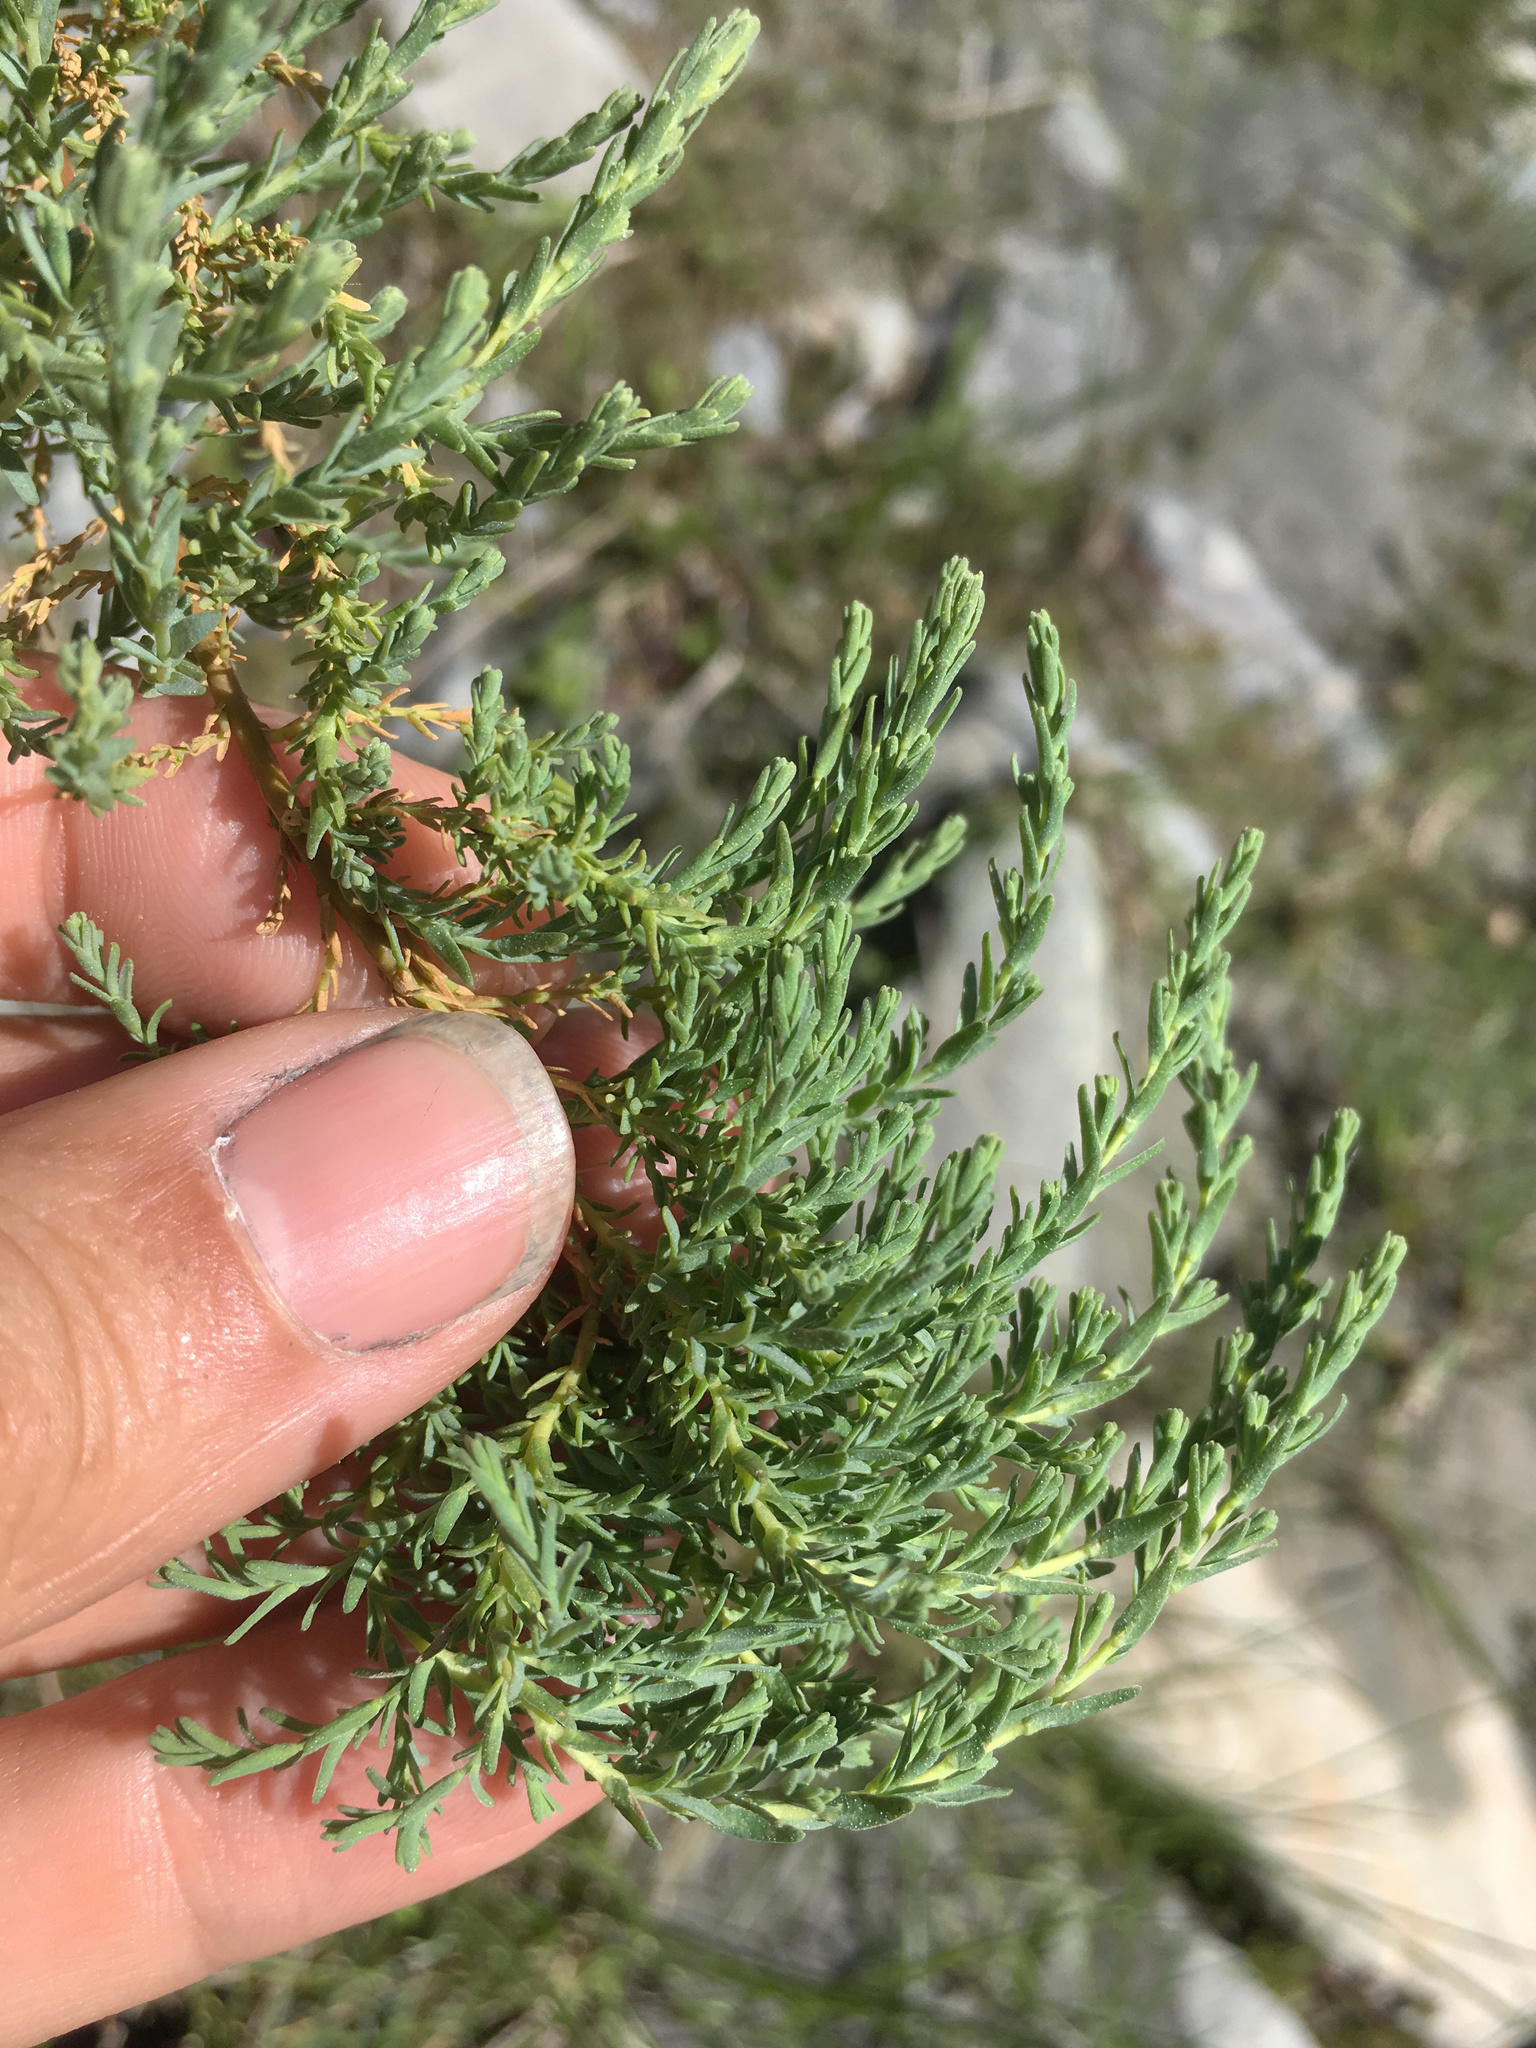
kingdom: Plantae
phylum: Tracheophyta
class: Magnoliopsida
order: Caryophyllales
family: Tamaricaceae
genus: Myricaria
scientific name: Myricaria germanica
